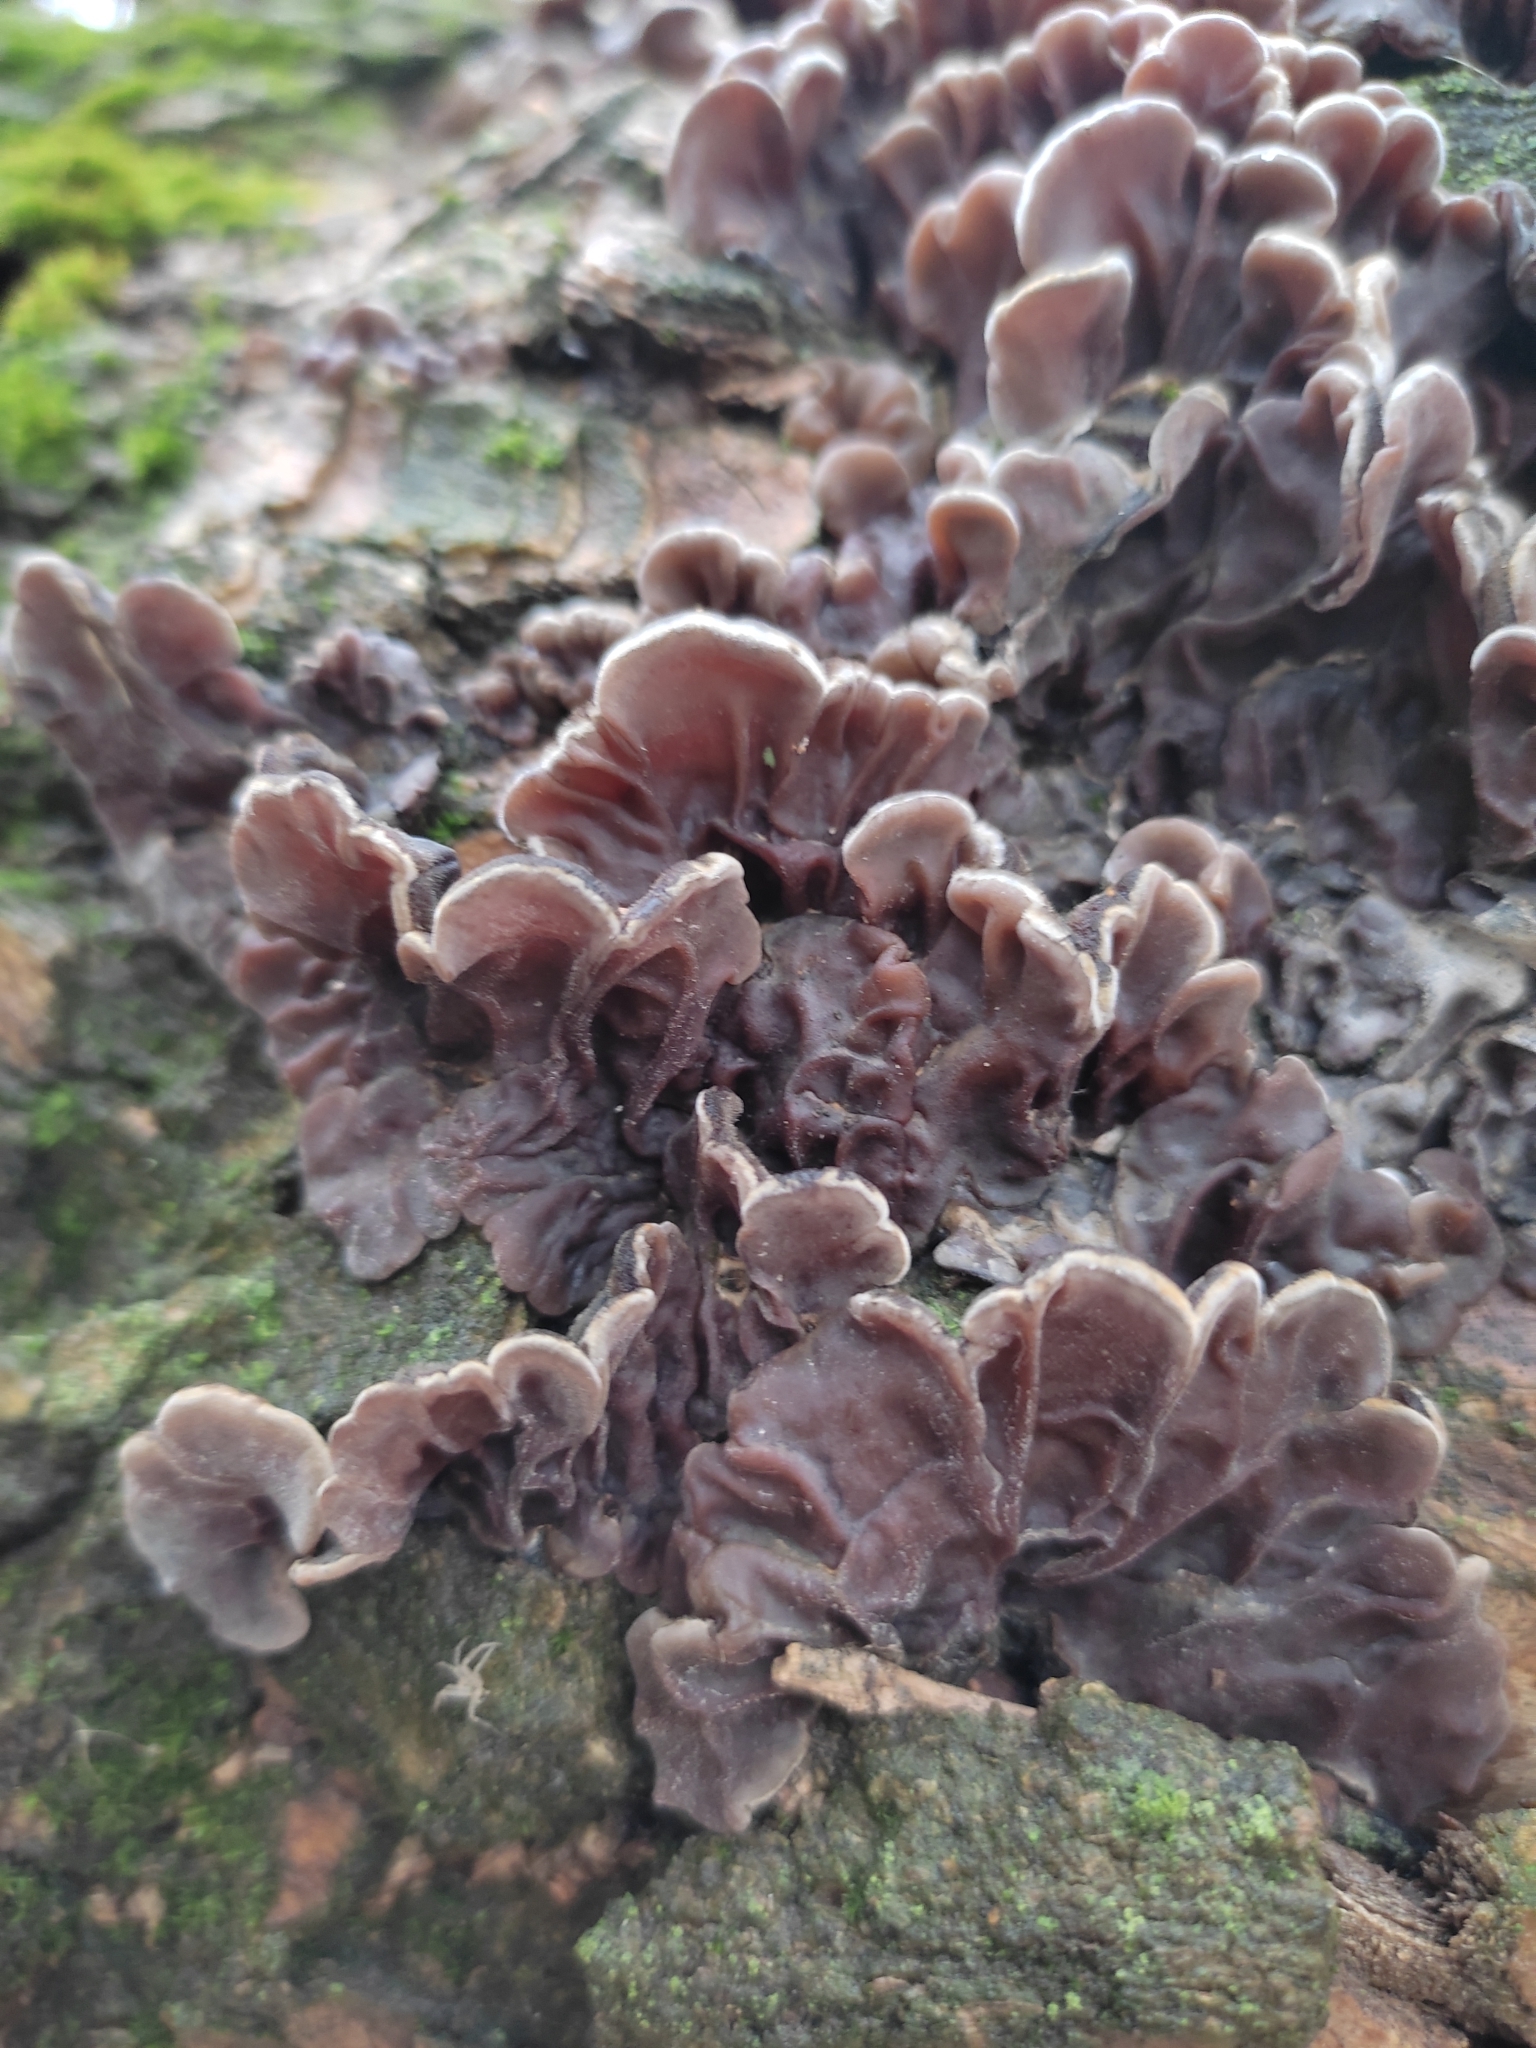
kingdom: Fungi
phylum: Basidiomycota
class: Agaricomycetes
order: Auriculariales
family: Auriculariaceae
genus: Auricularia
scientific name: Auricularia mesenterica
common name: Tripe fungus
